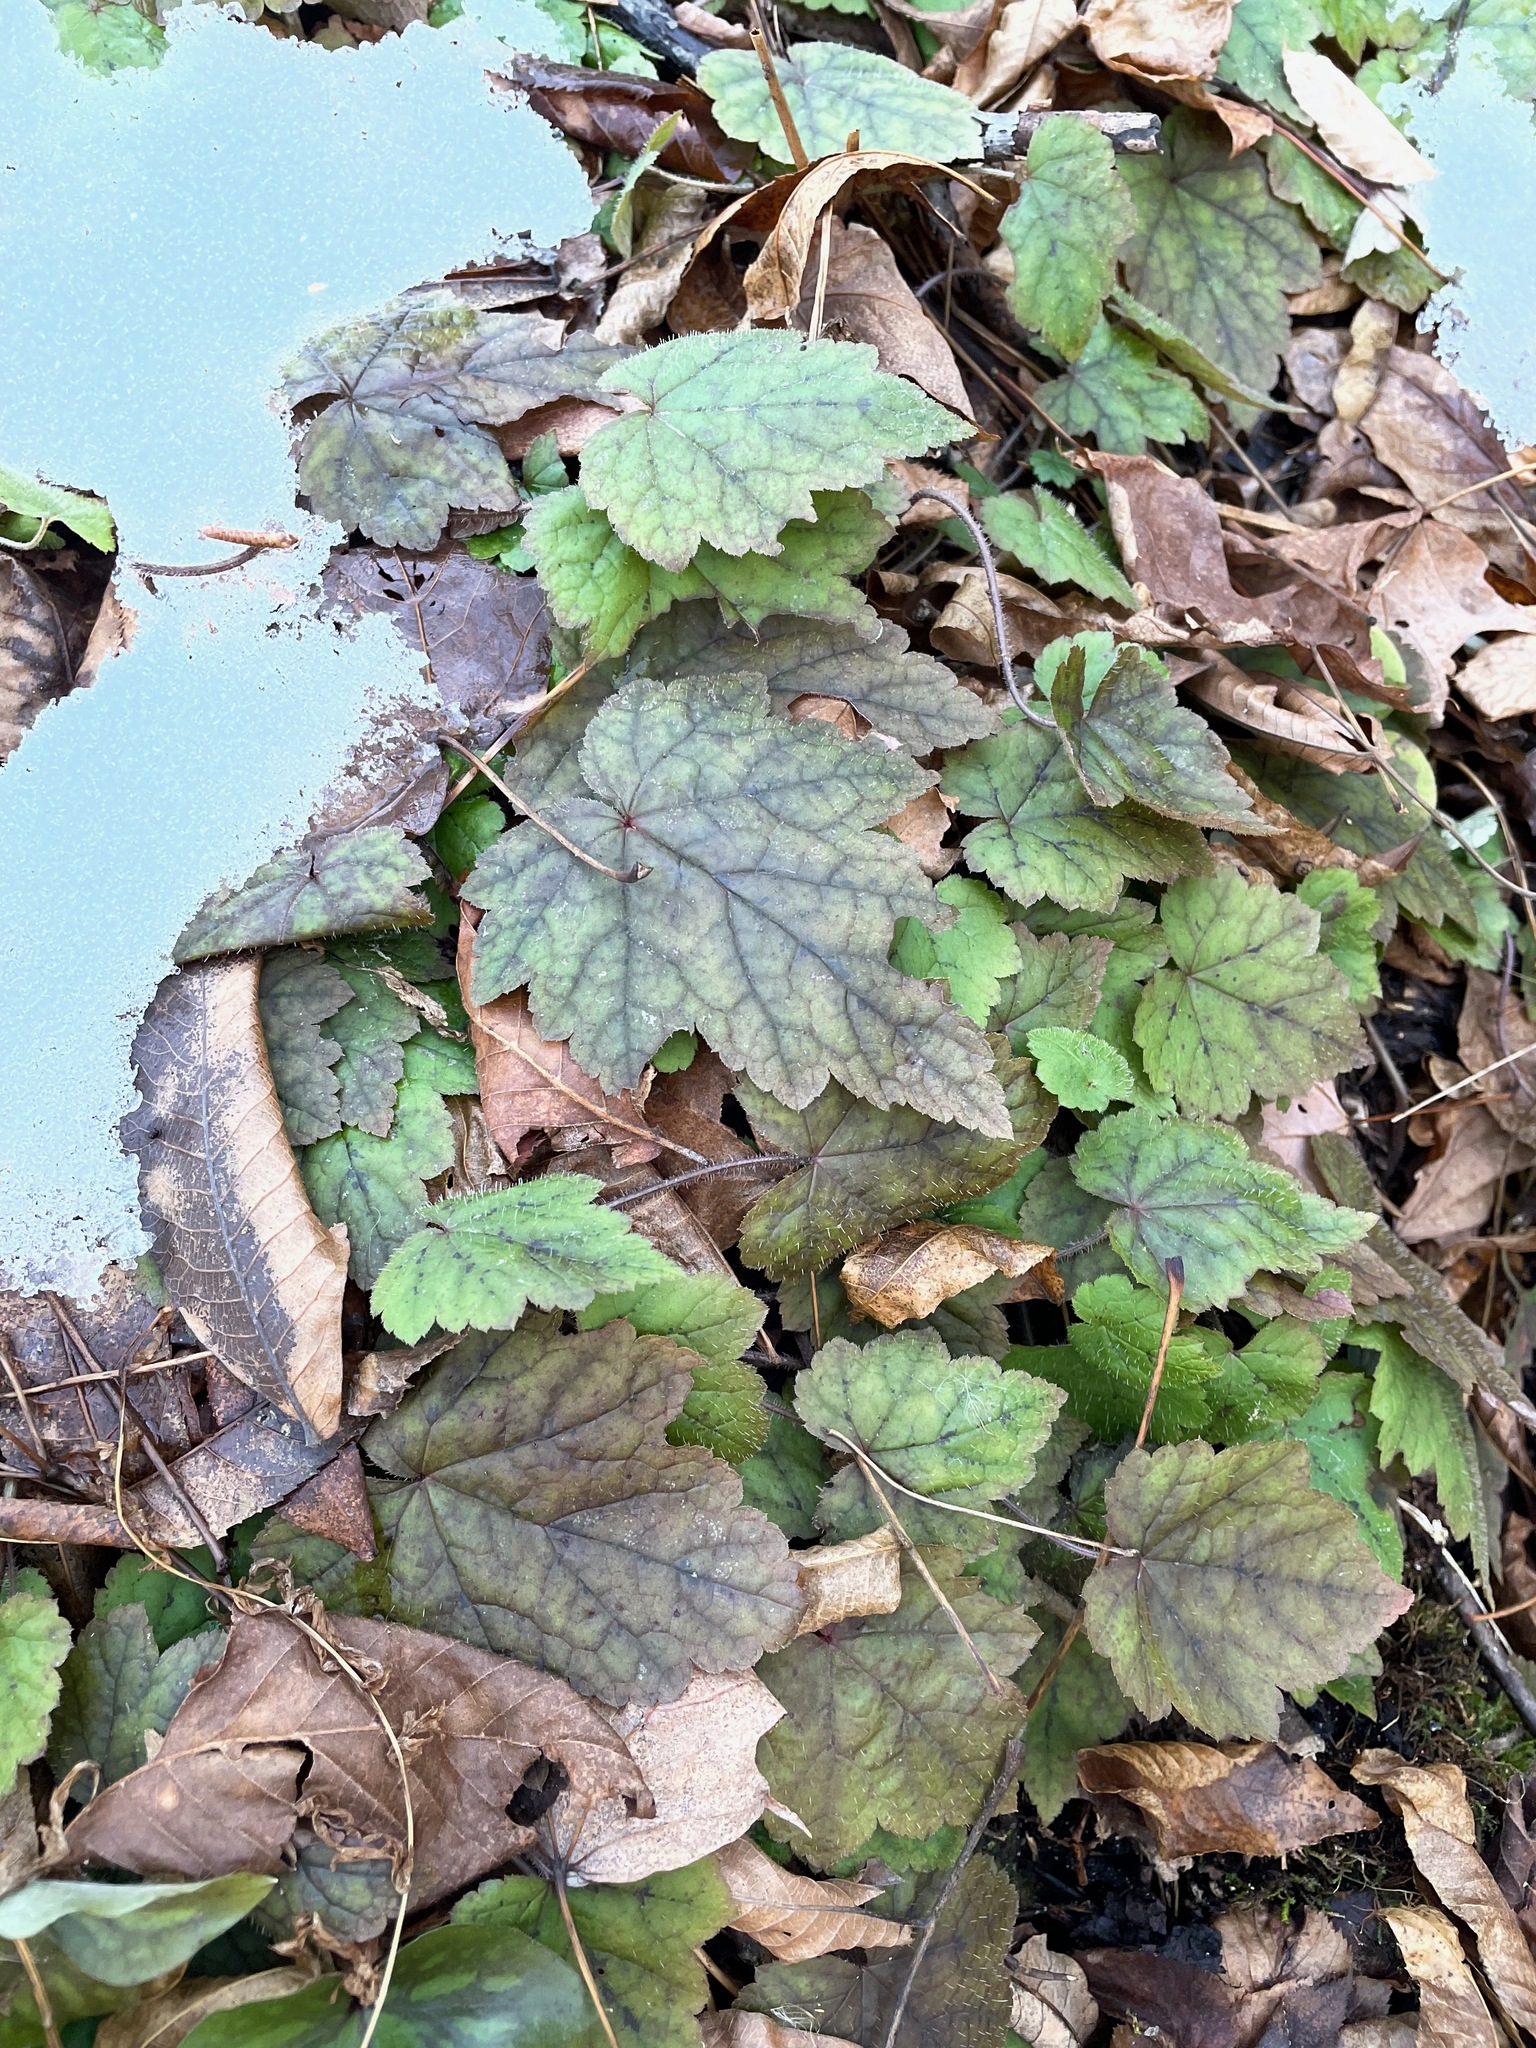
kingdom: Plantae
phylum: Tracheophyta
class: Magnoliopsida
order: Saxifragales
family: Saxifragaceae
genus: Tiarella
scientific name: Tiarella stolonifera
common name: Stoloniferous foamflower
